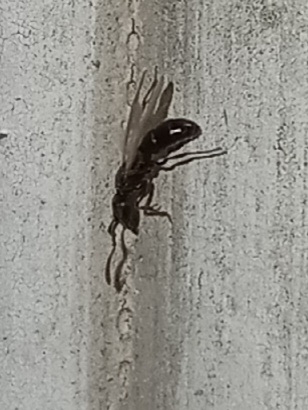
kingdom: Animalia
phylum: Arthropoda
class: Insecta
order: Hymenoptera
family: Formicidae
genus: Pachycondyla
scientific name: Pachycondyla chinensis
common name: Asian needle ant
